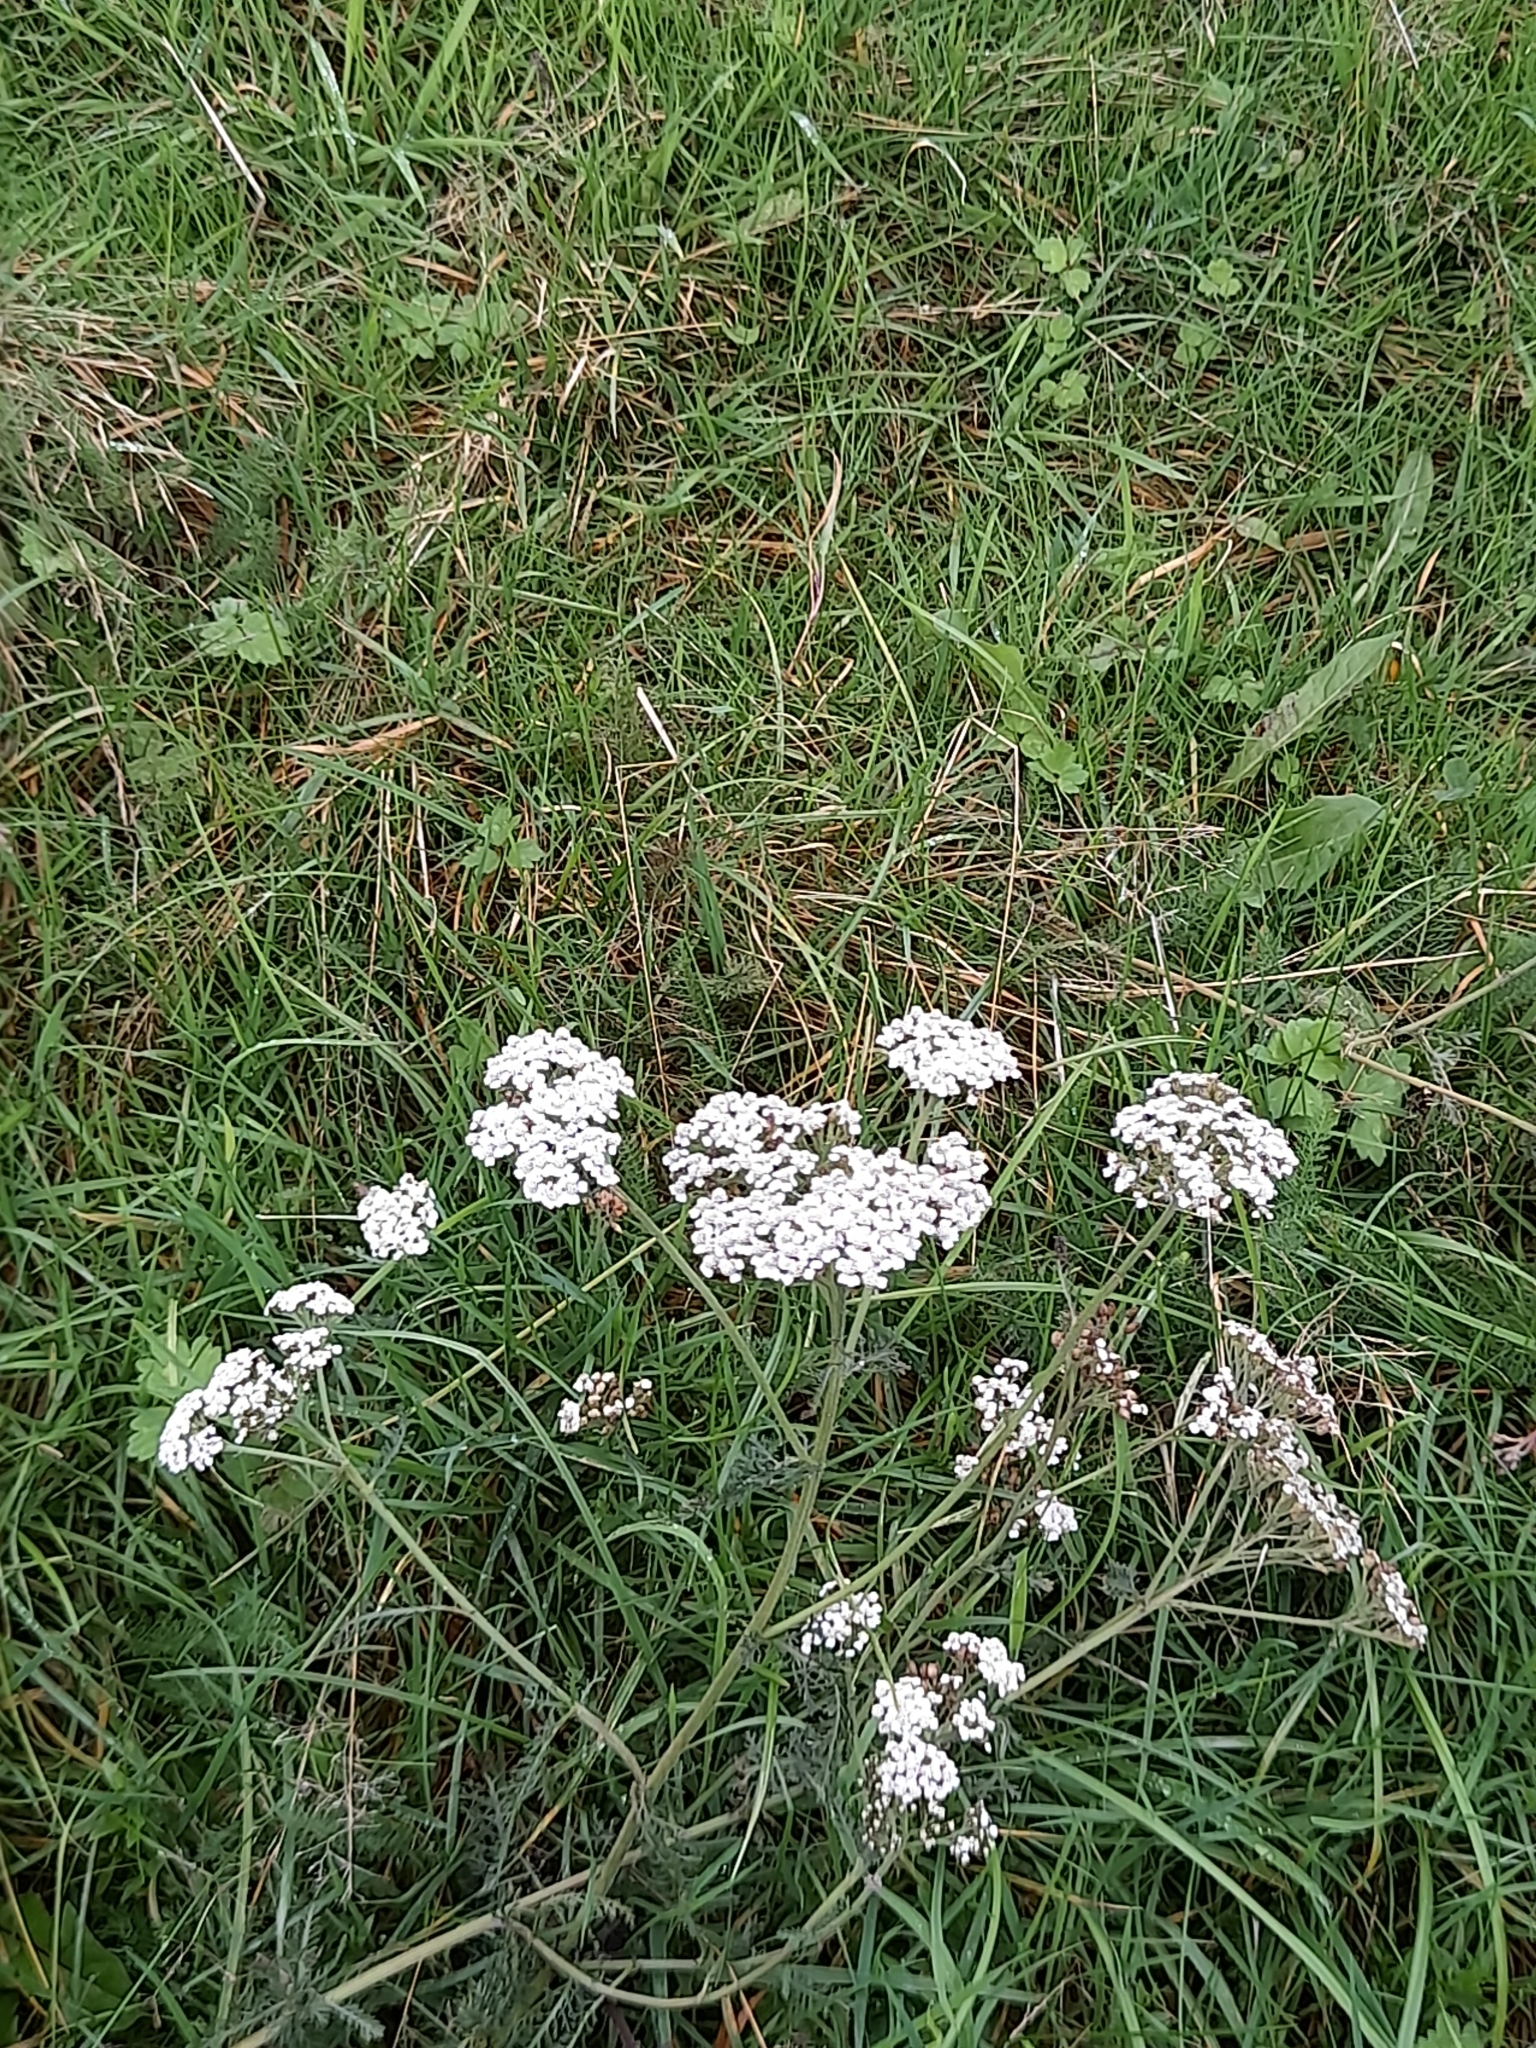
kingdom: Plantae
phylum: Tracheophyta
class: Magnoliopsida
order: Asterales
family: Asteraceae
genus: Achillea
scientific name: Achillea millefolium
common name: Yarrow
